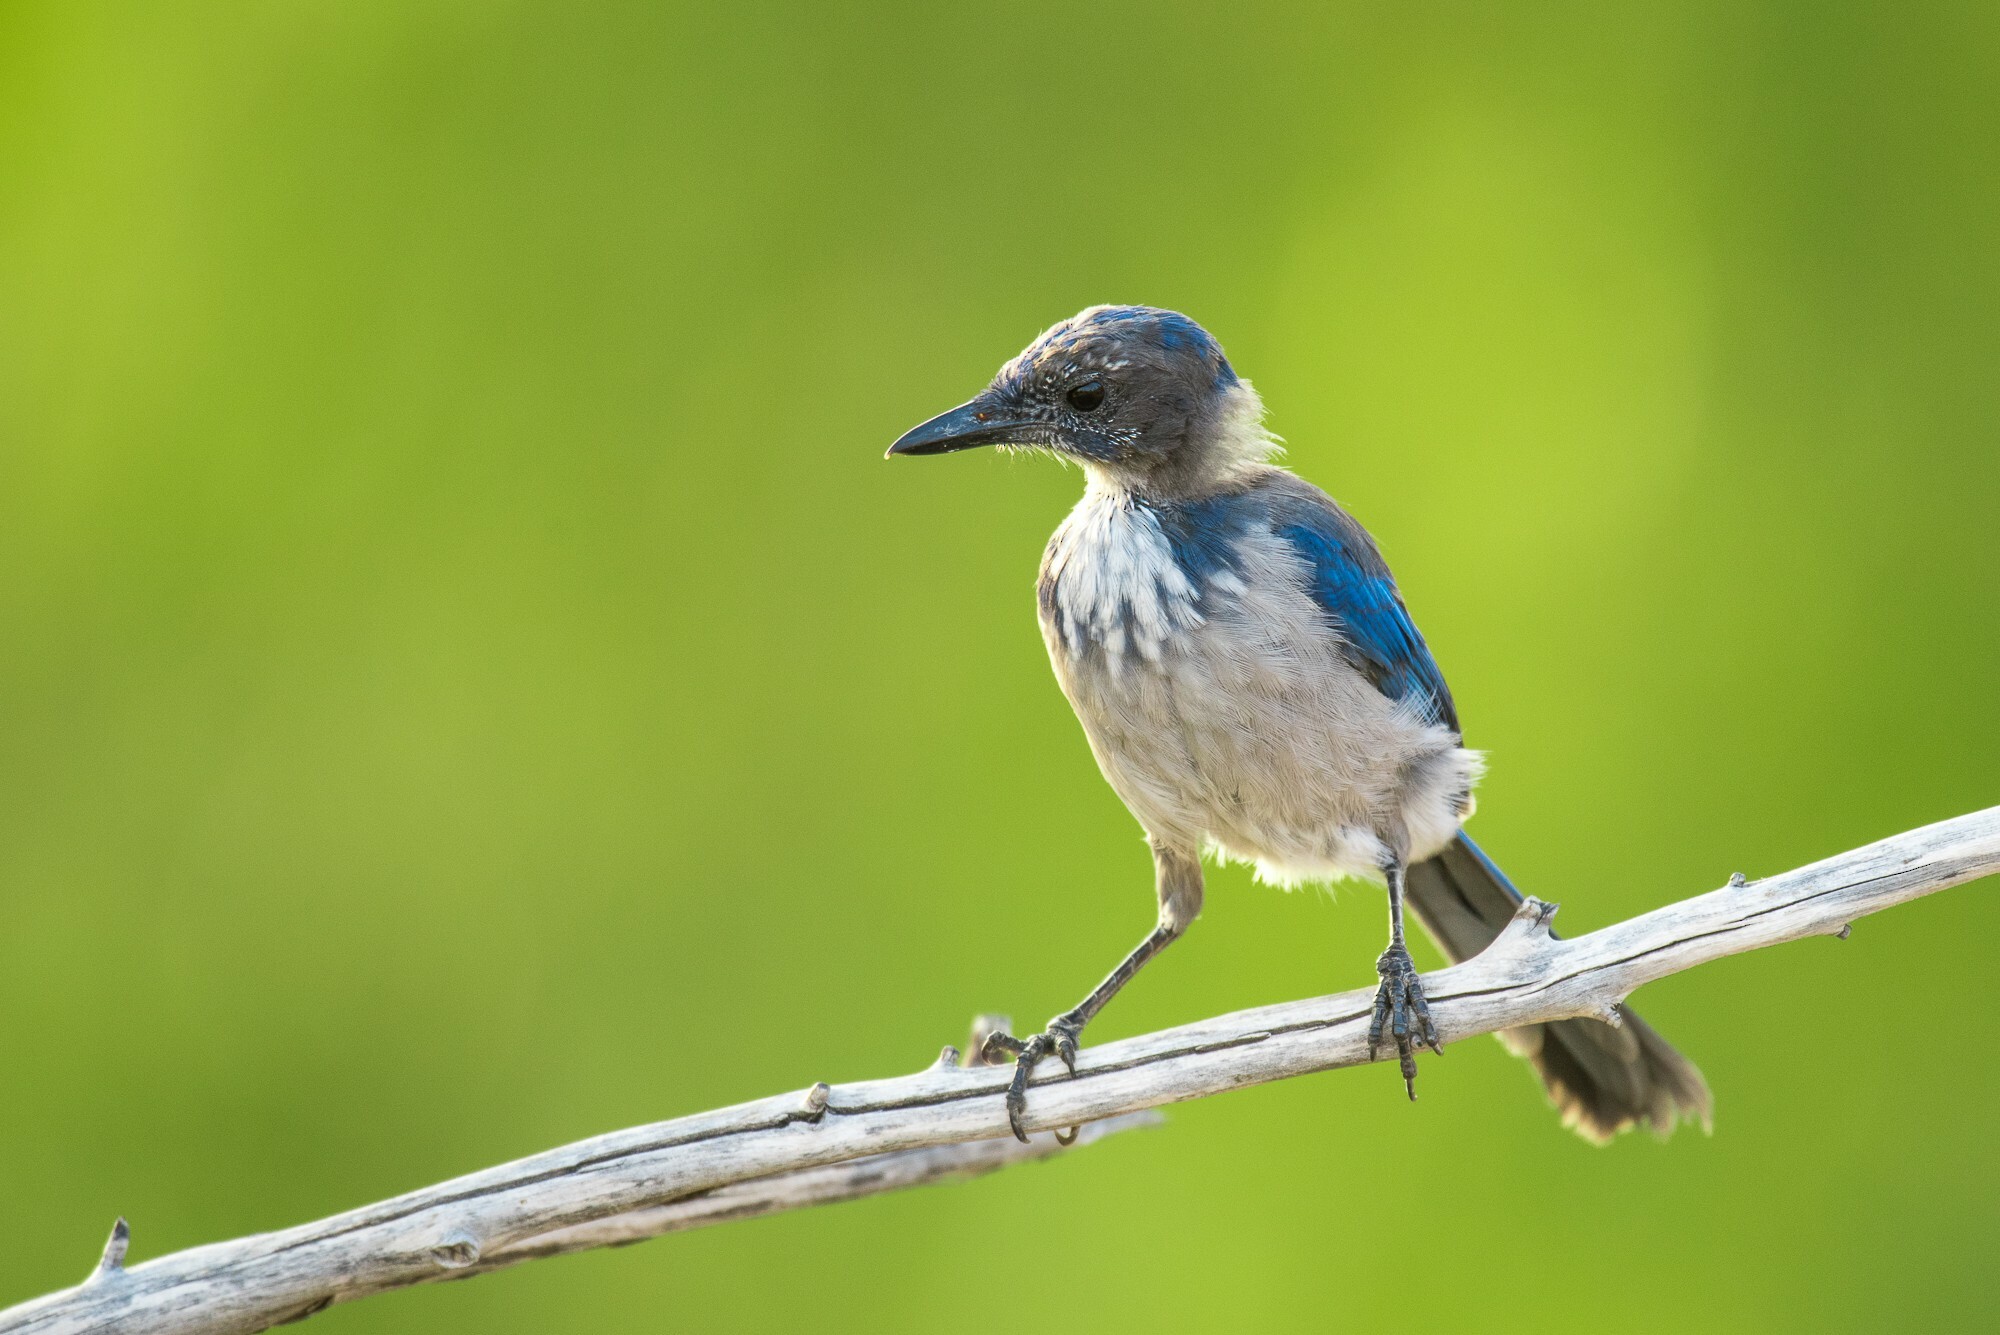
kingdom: Animalia
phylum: Chordata
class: Aves
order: Passeriformes
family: Corvidae
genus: Aphelocoma
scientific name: Aphelocoma californica
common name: California scrub-jay
